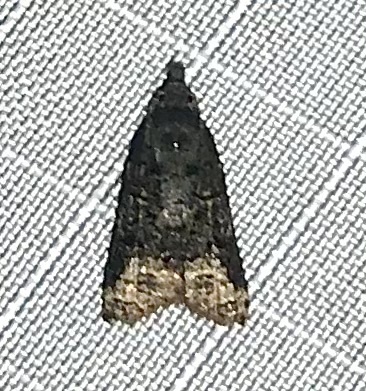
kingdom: Animalia
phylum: Arthropoda
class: Insecta
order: Lepidoptera
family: Tortricidae
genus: Platynota
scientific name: Platynota semiustana
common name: Singed platynota
